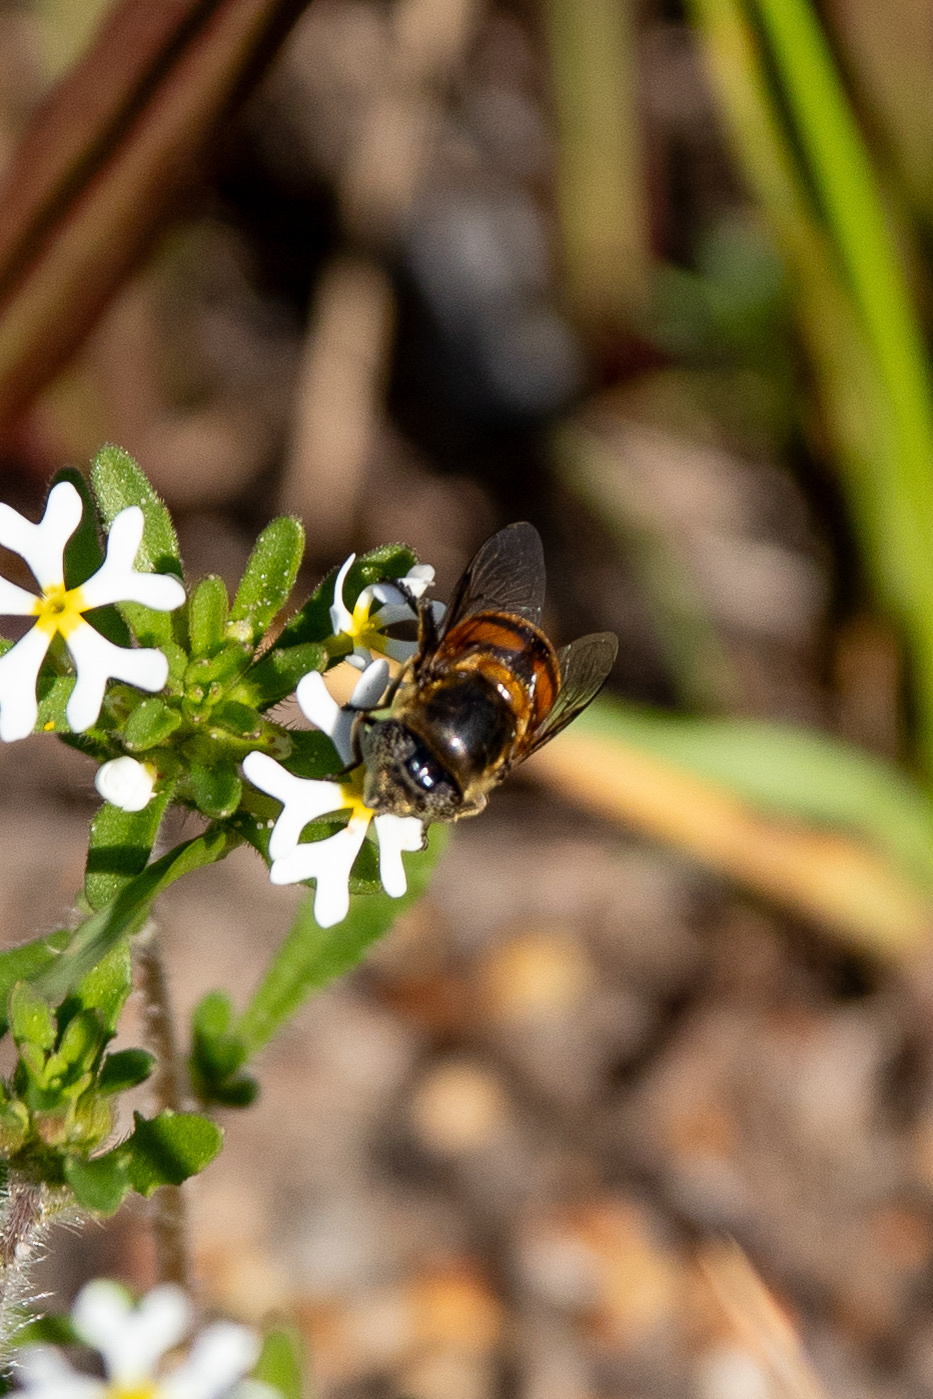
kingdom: Animalia
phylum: Arthropoda
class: Insecta
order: Diptera
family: Syrphidae
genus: Eristalinus
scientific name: Eristalinus modestus
